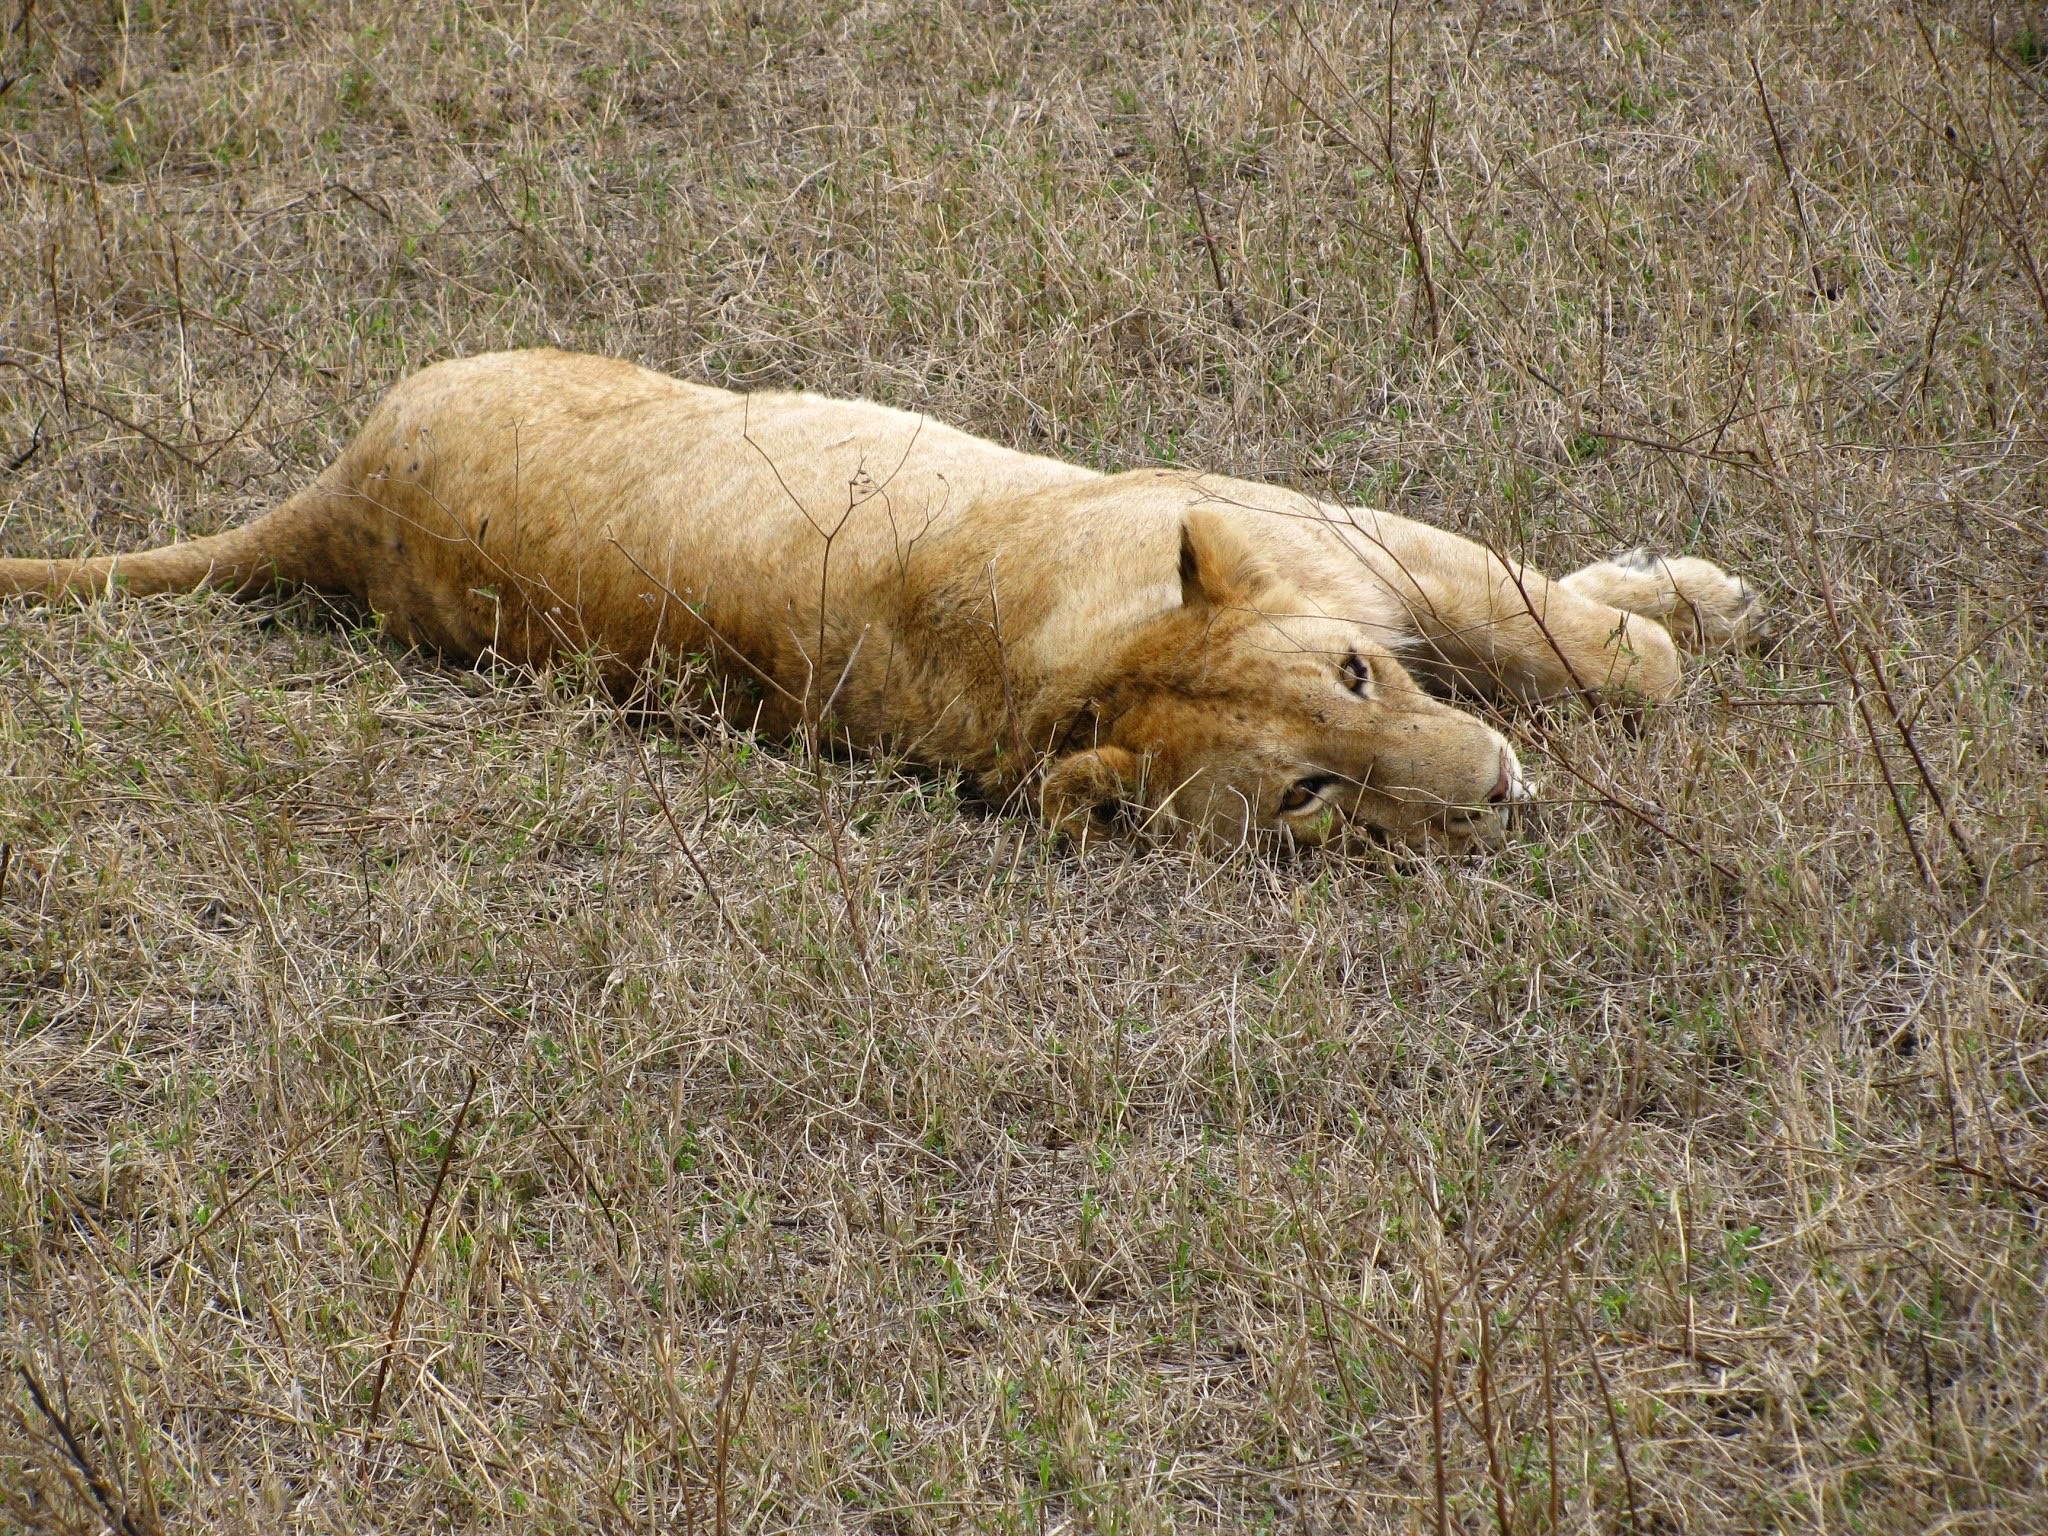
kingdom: Animalia
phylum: Chordata
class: Mammalia
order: Carnivora
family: Felidae
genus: Panthera
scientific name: Panthera leo
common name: Lion
